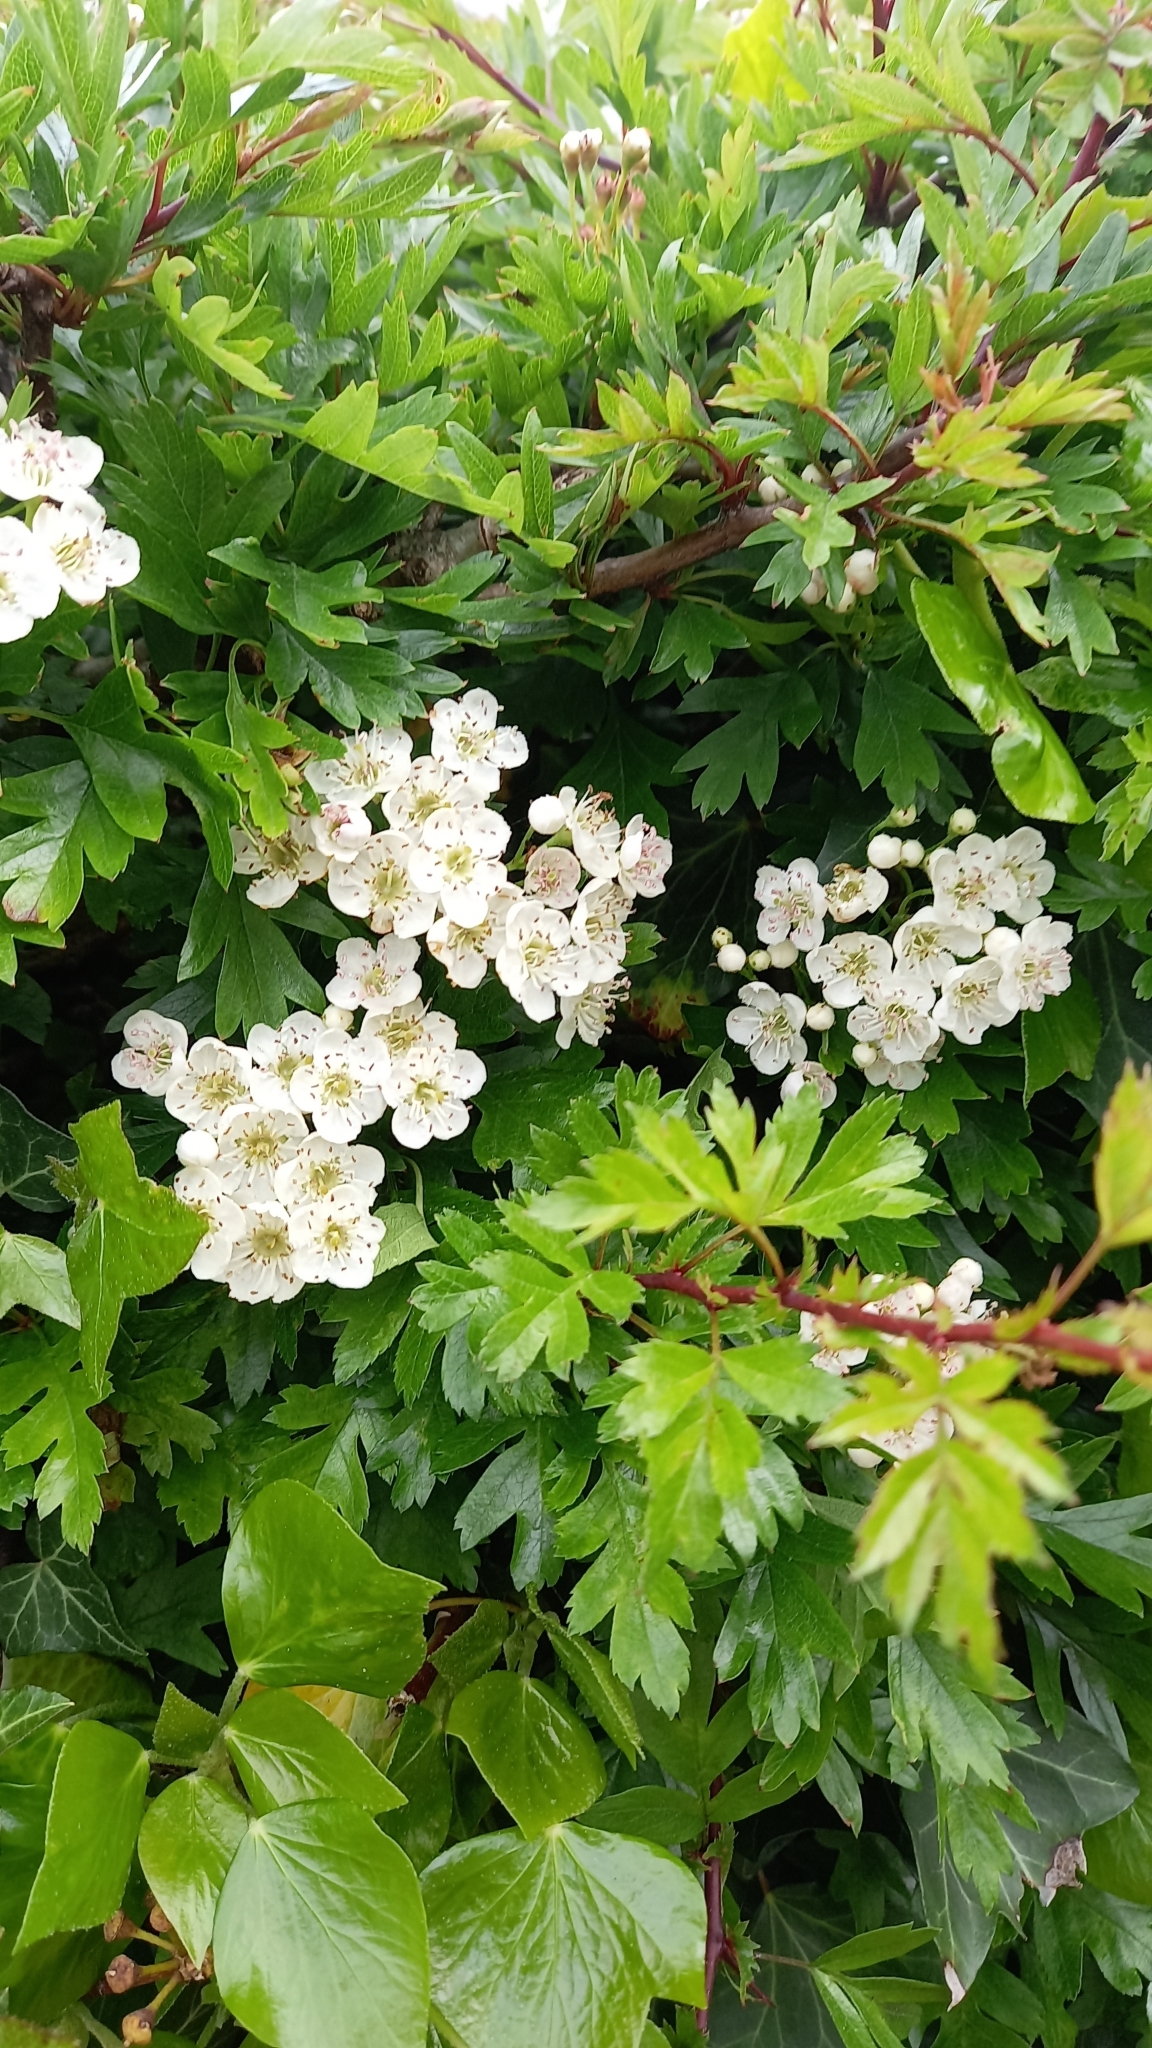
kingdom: Plantae
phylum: Tracheophyta
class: Magnoliopsida
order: Rosales
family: Rosaceae
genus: Crataegus
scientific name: Crataegus monogyna
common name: Hawthorn
